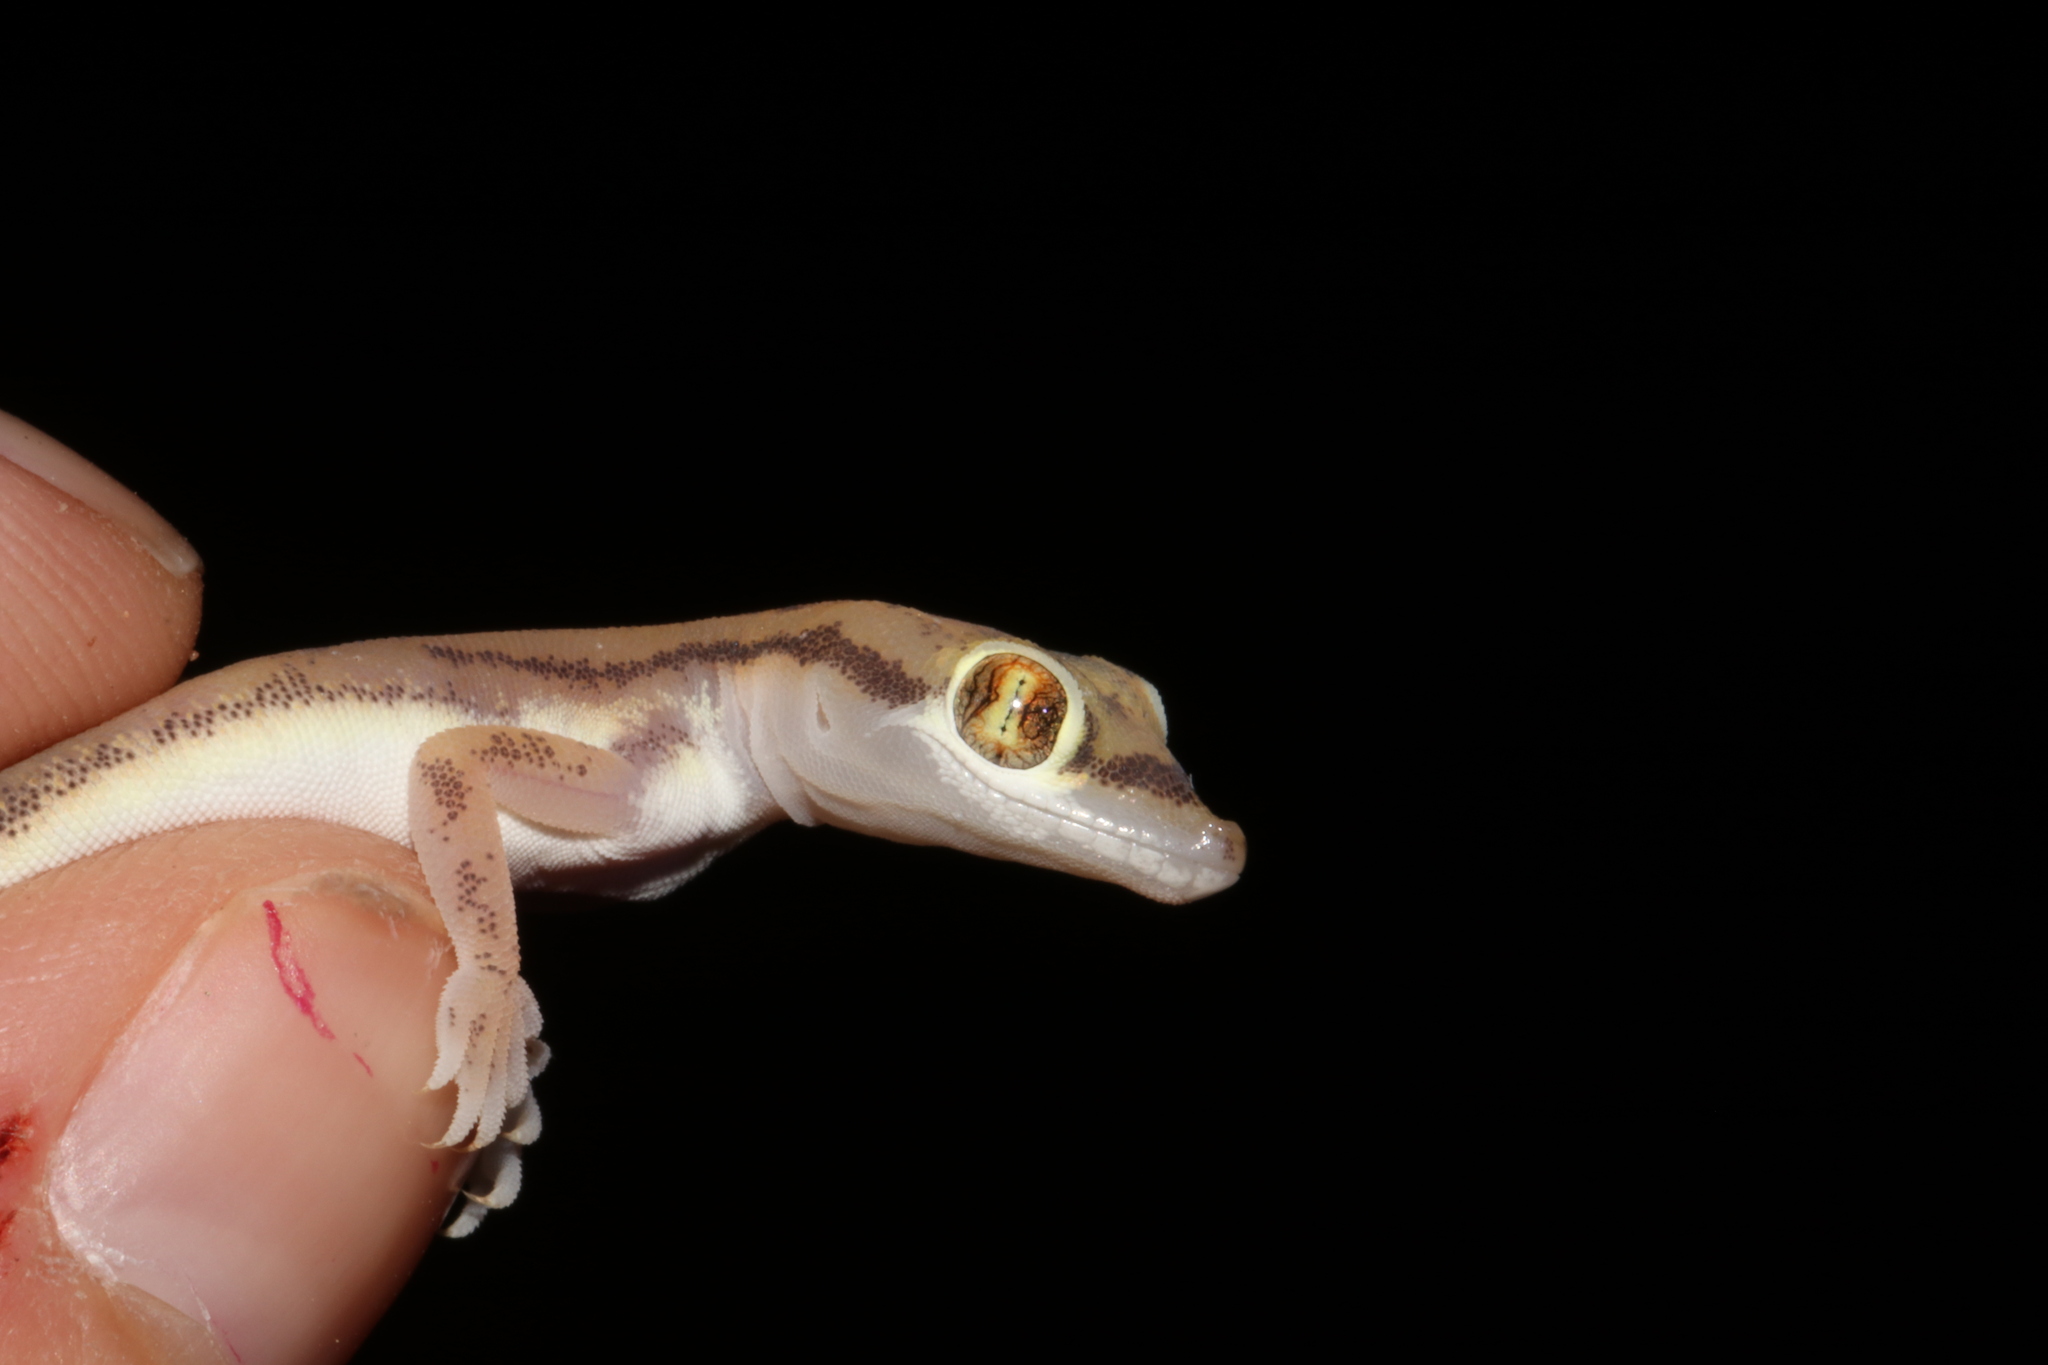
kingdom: Animalia
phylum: Chordata
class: Squamata
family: Gekkonidae
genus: Trigonodactylus
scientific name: Trigonodactylus arabicus
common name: Arabian sand gecko
